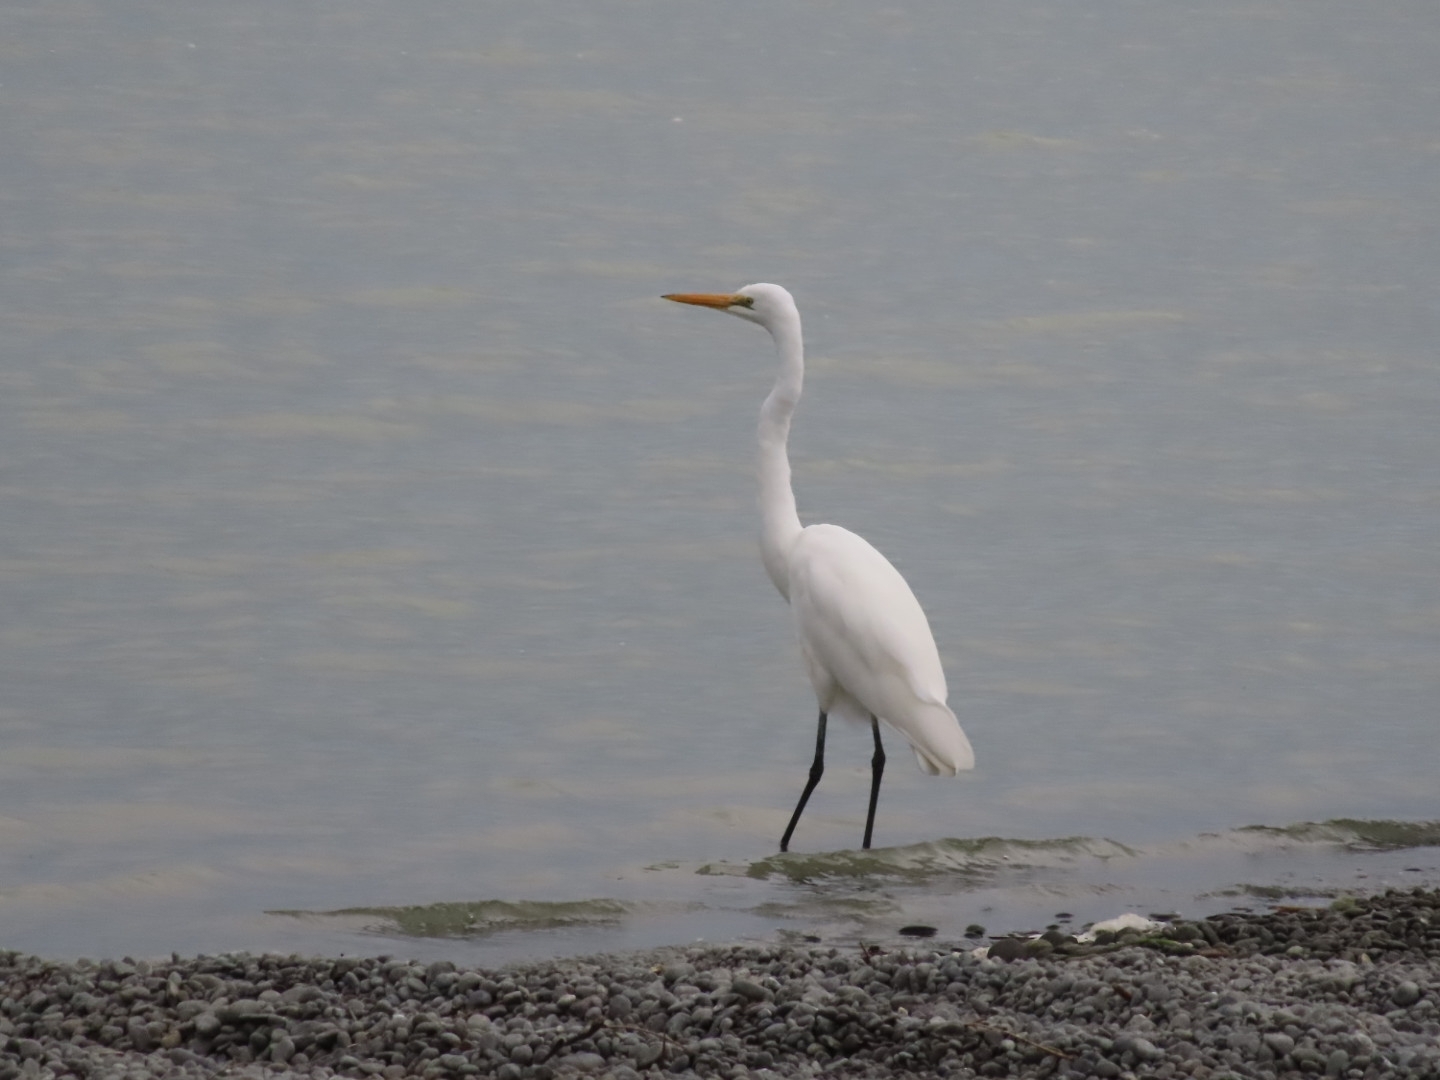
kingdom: Animalia
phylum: Chordata
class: Aves
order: Pelecaniformes
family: Ardeidae
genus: Ardea
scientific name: Ardea modesta
